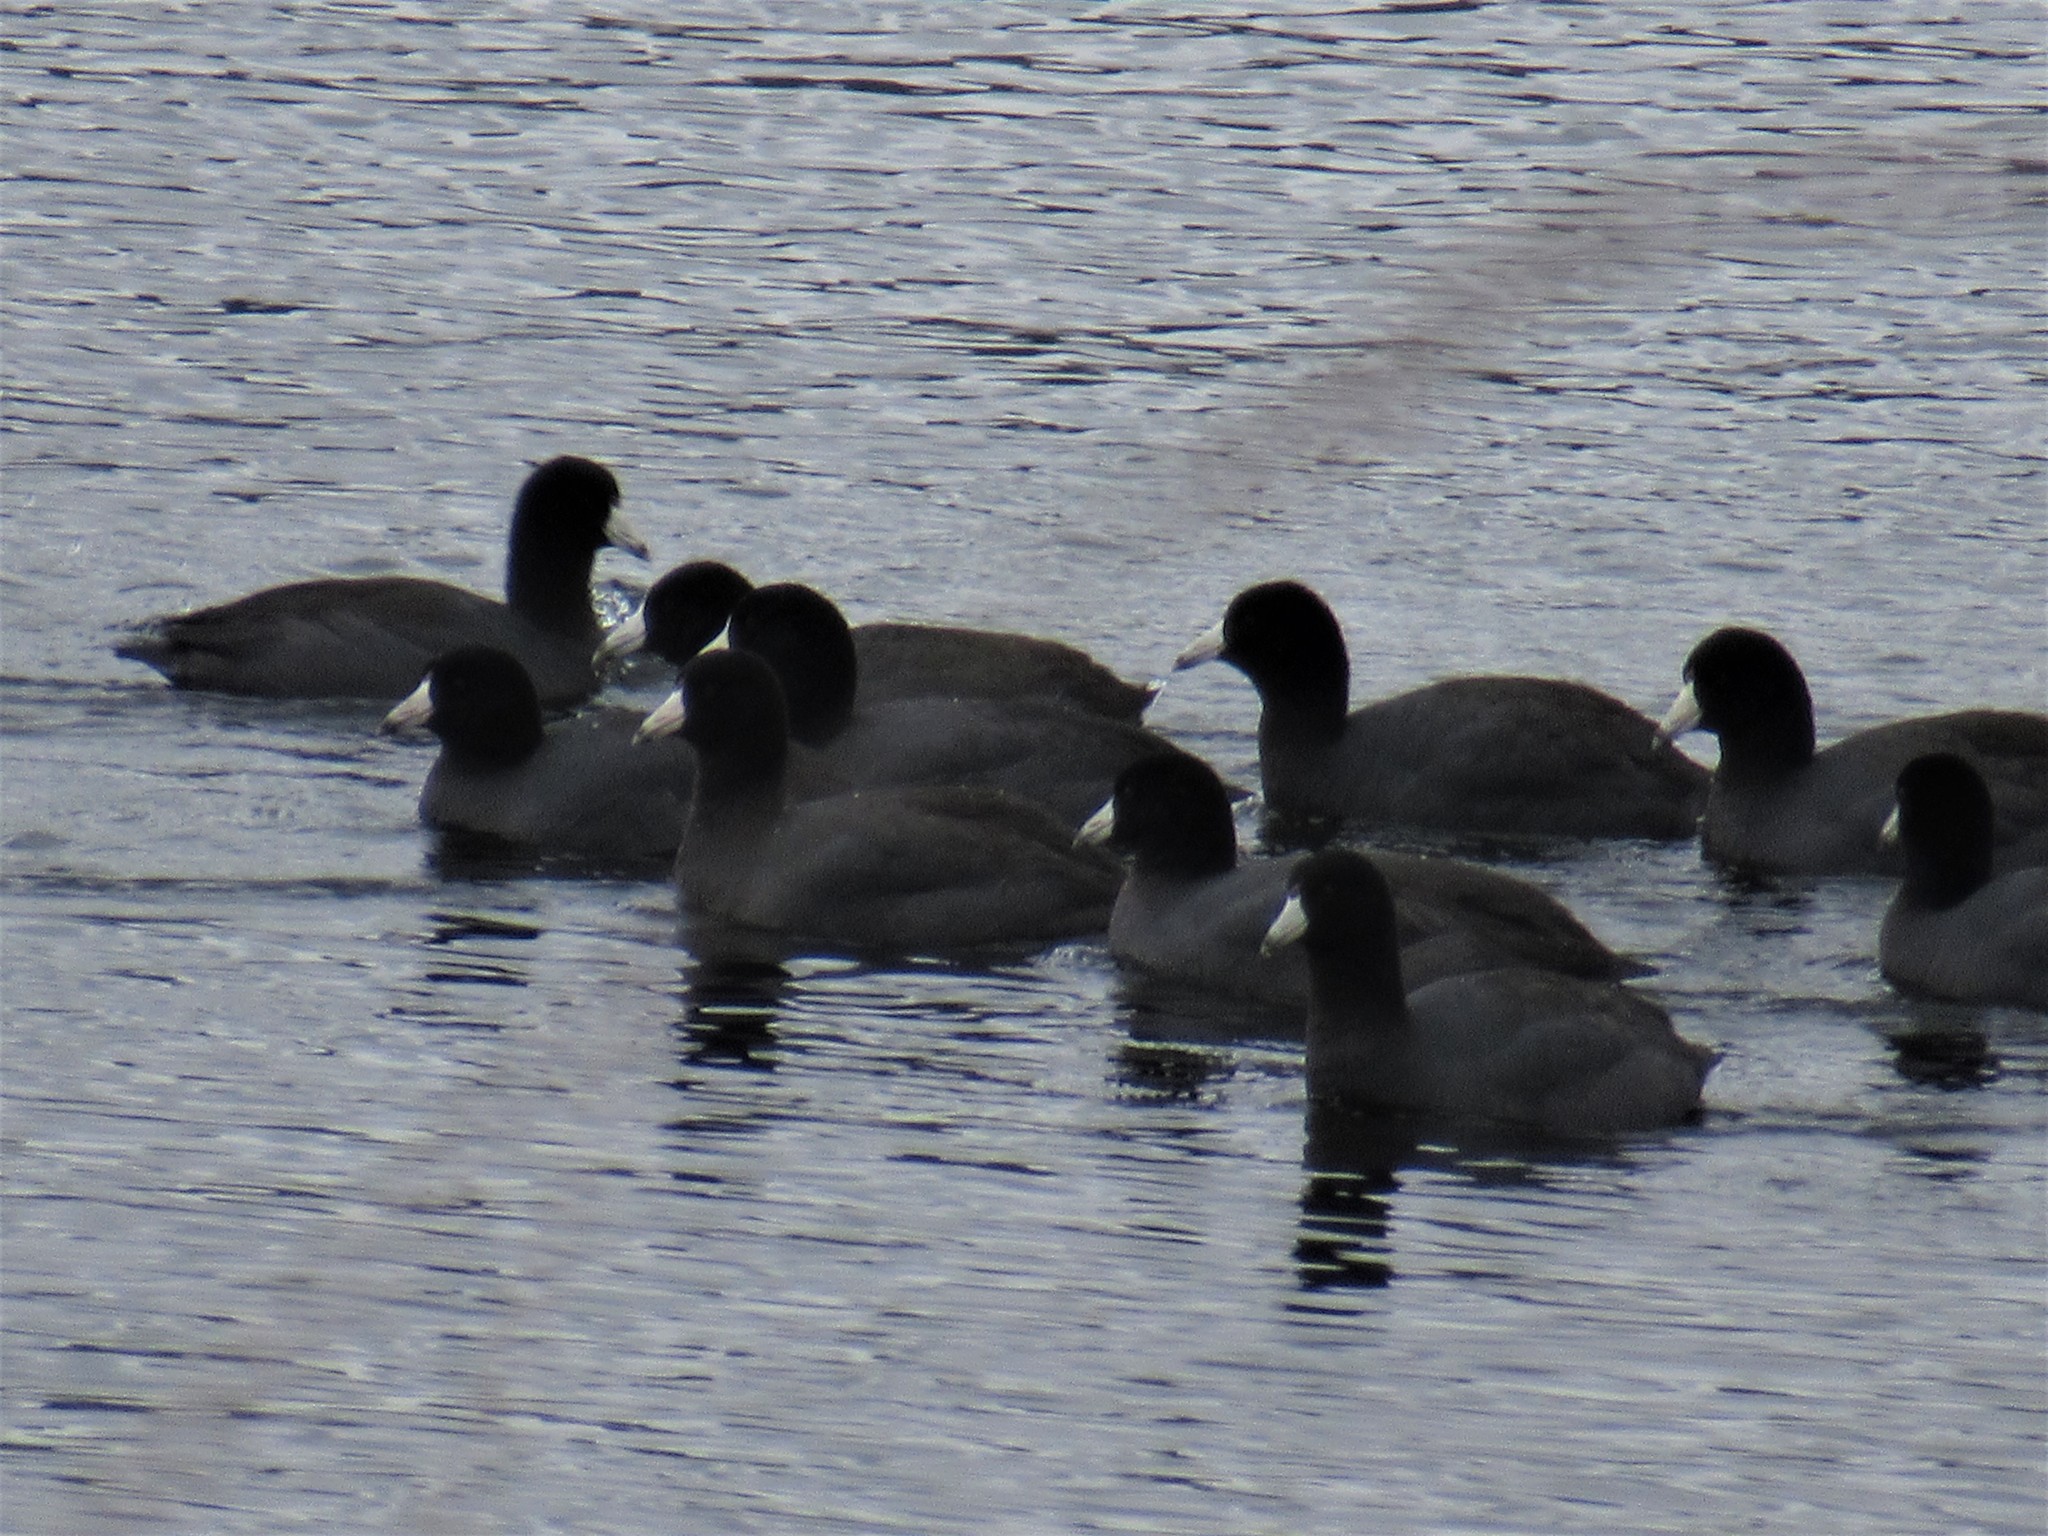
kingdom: Animalia
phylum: Chordata
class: Aves
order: Gruiformes
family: Rallidae
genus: Fulica
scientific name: Fulica americana
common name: American coot
